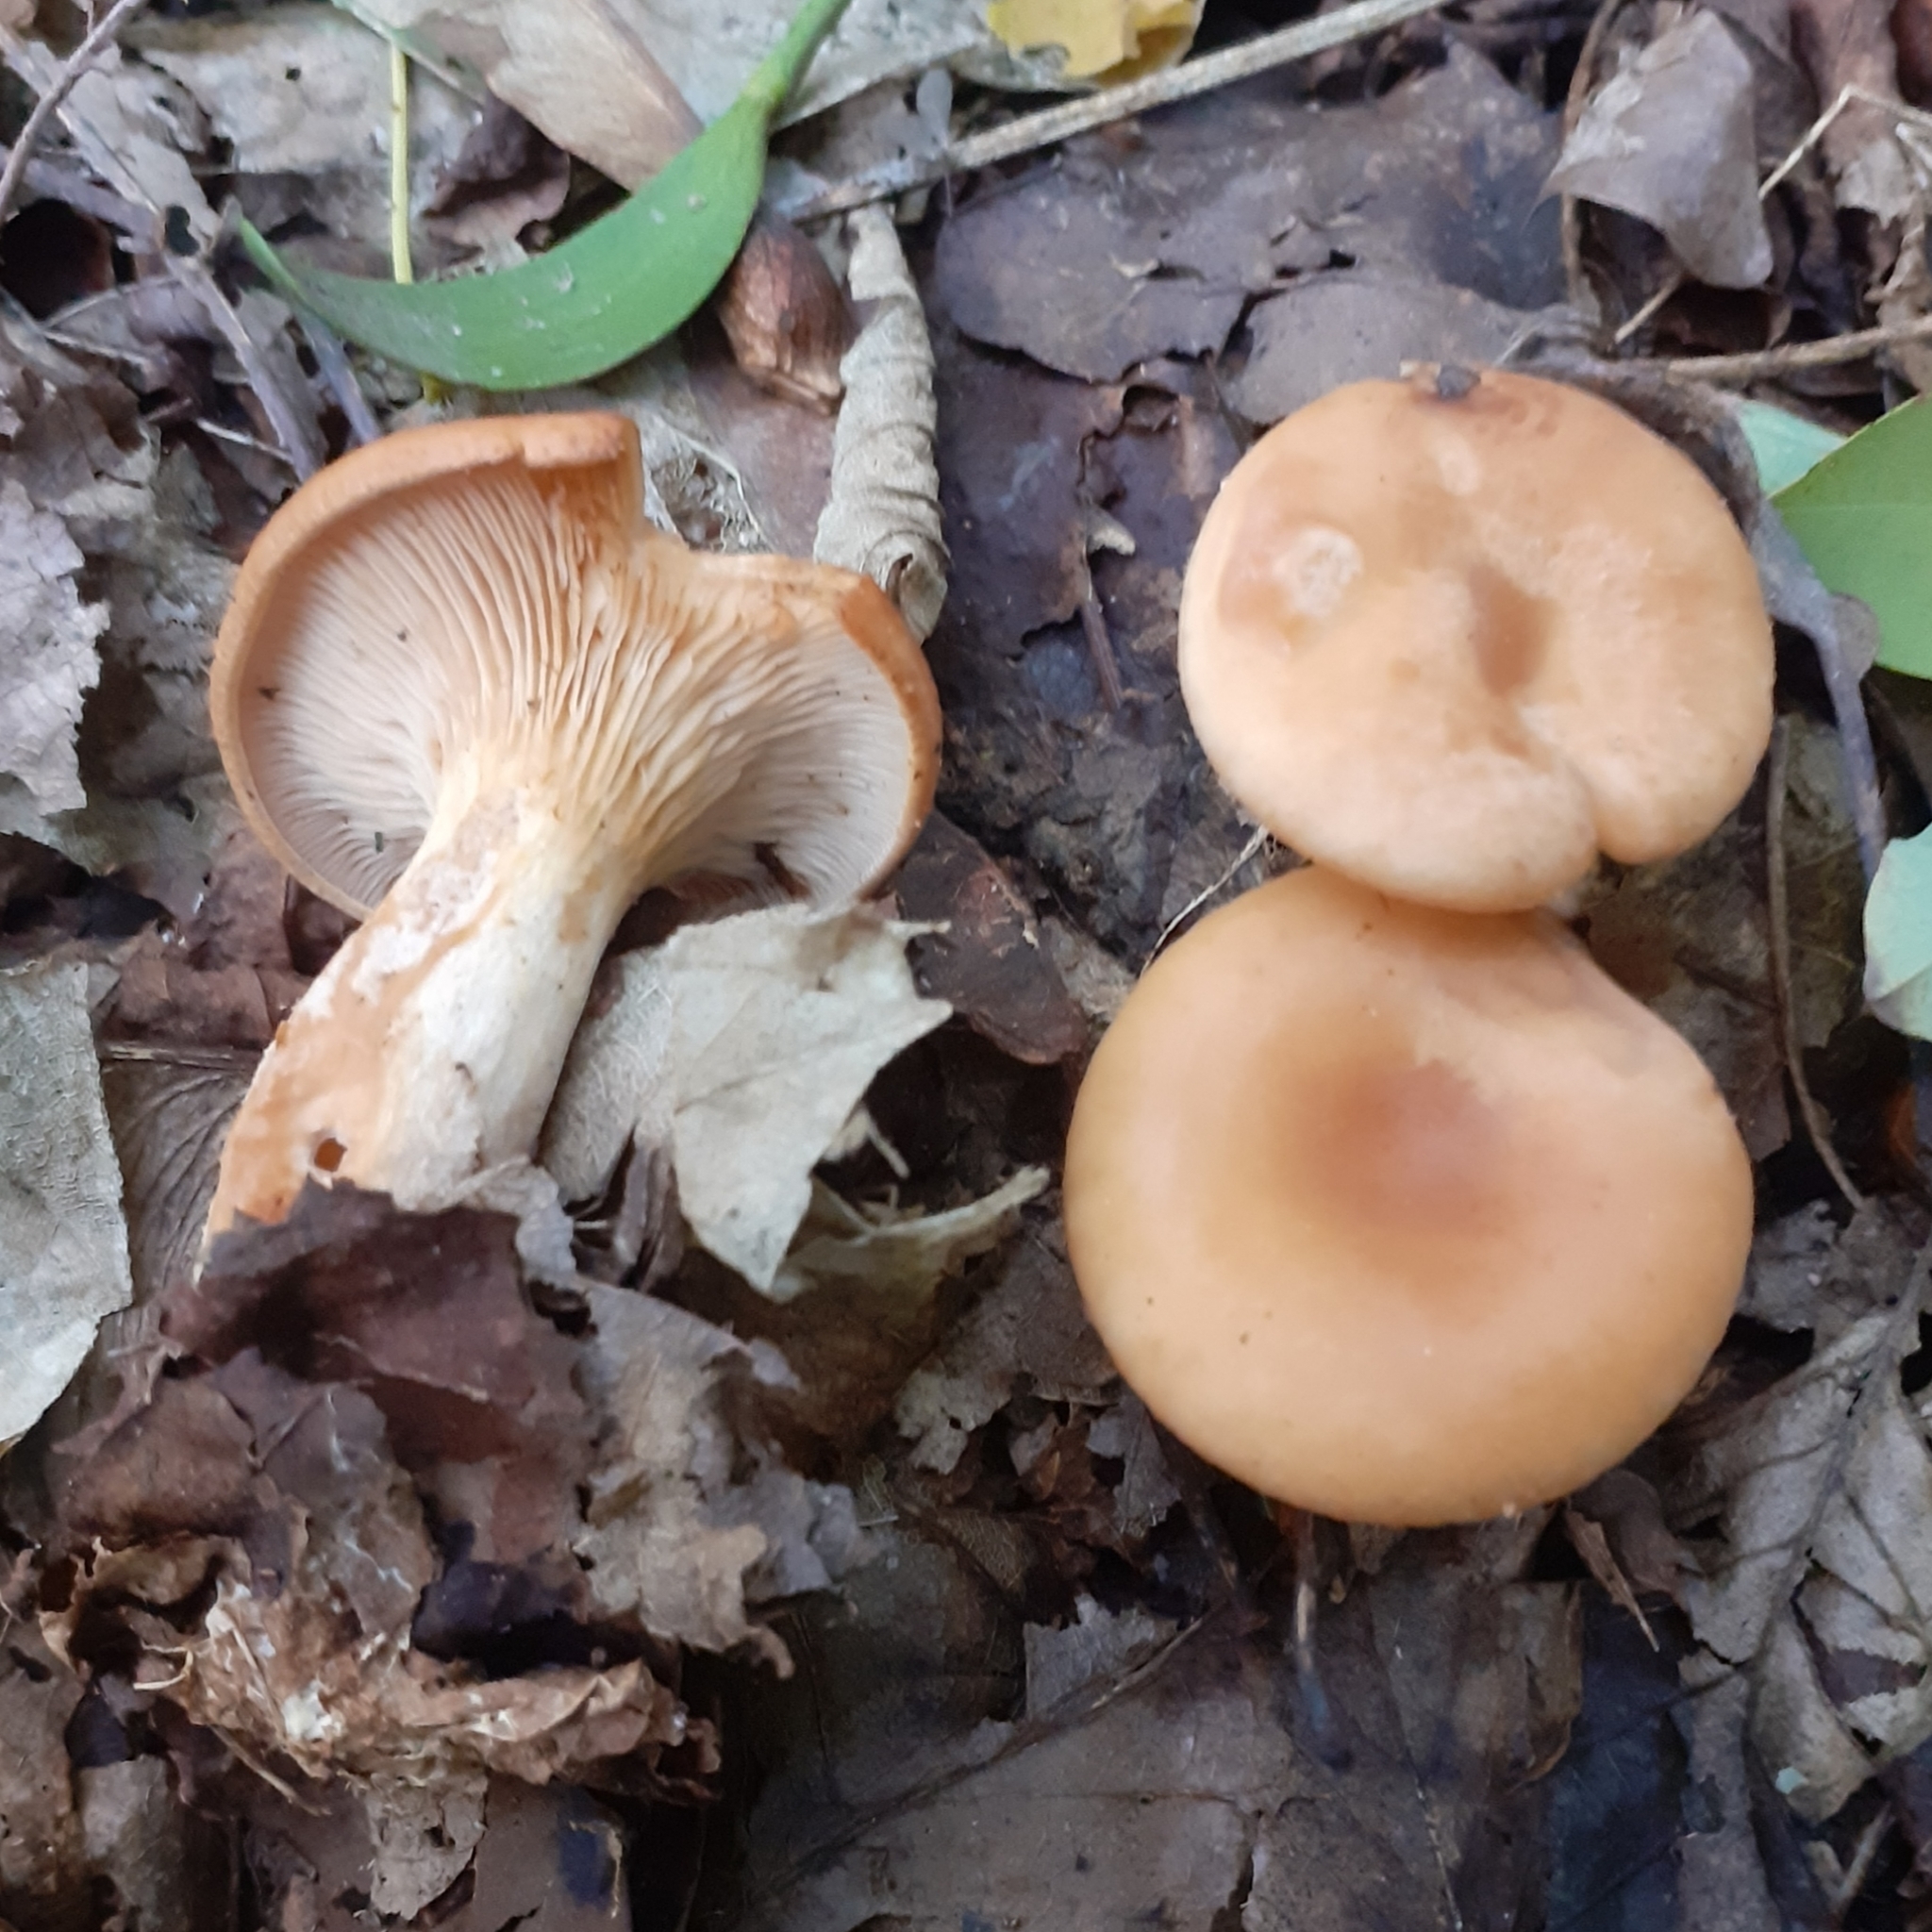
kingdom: Fungi
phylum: Basidiomycota
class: Agaricomycetes
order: Agaricales
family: Tricholomataceae
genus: Paralepista
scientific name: Paralepista flaccida
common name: Tawny funnel cap
